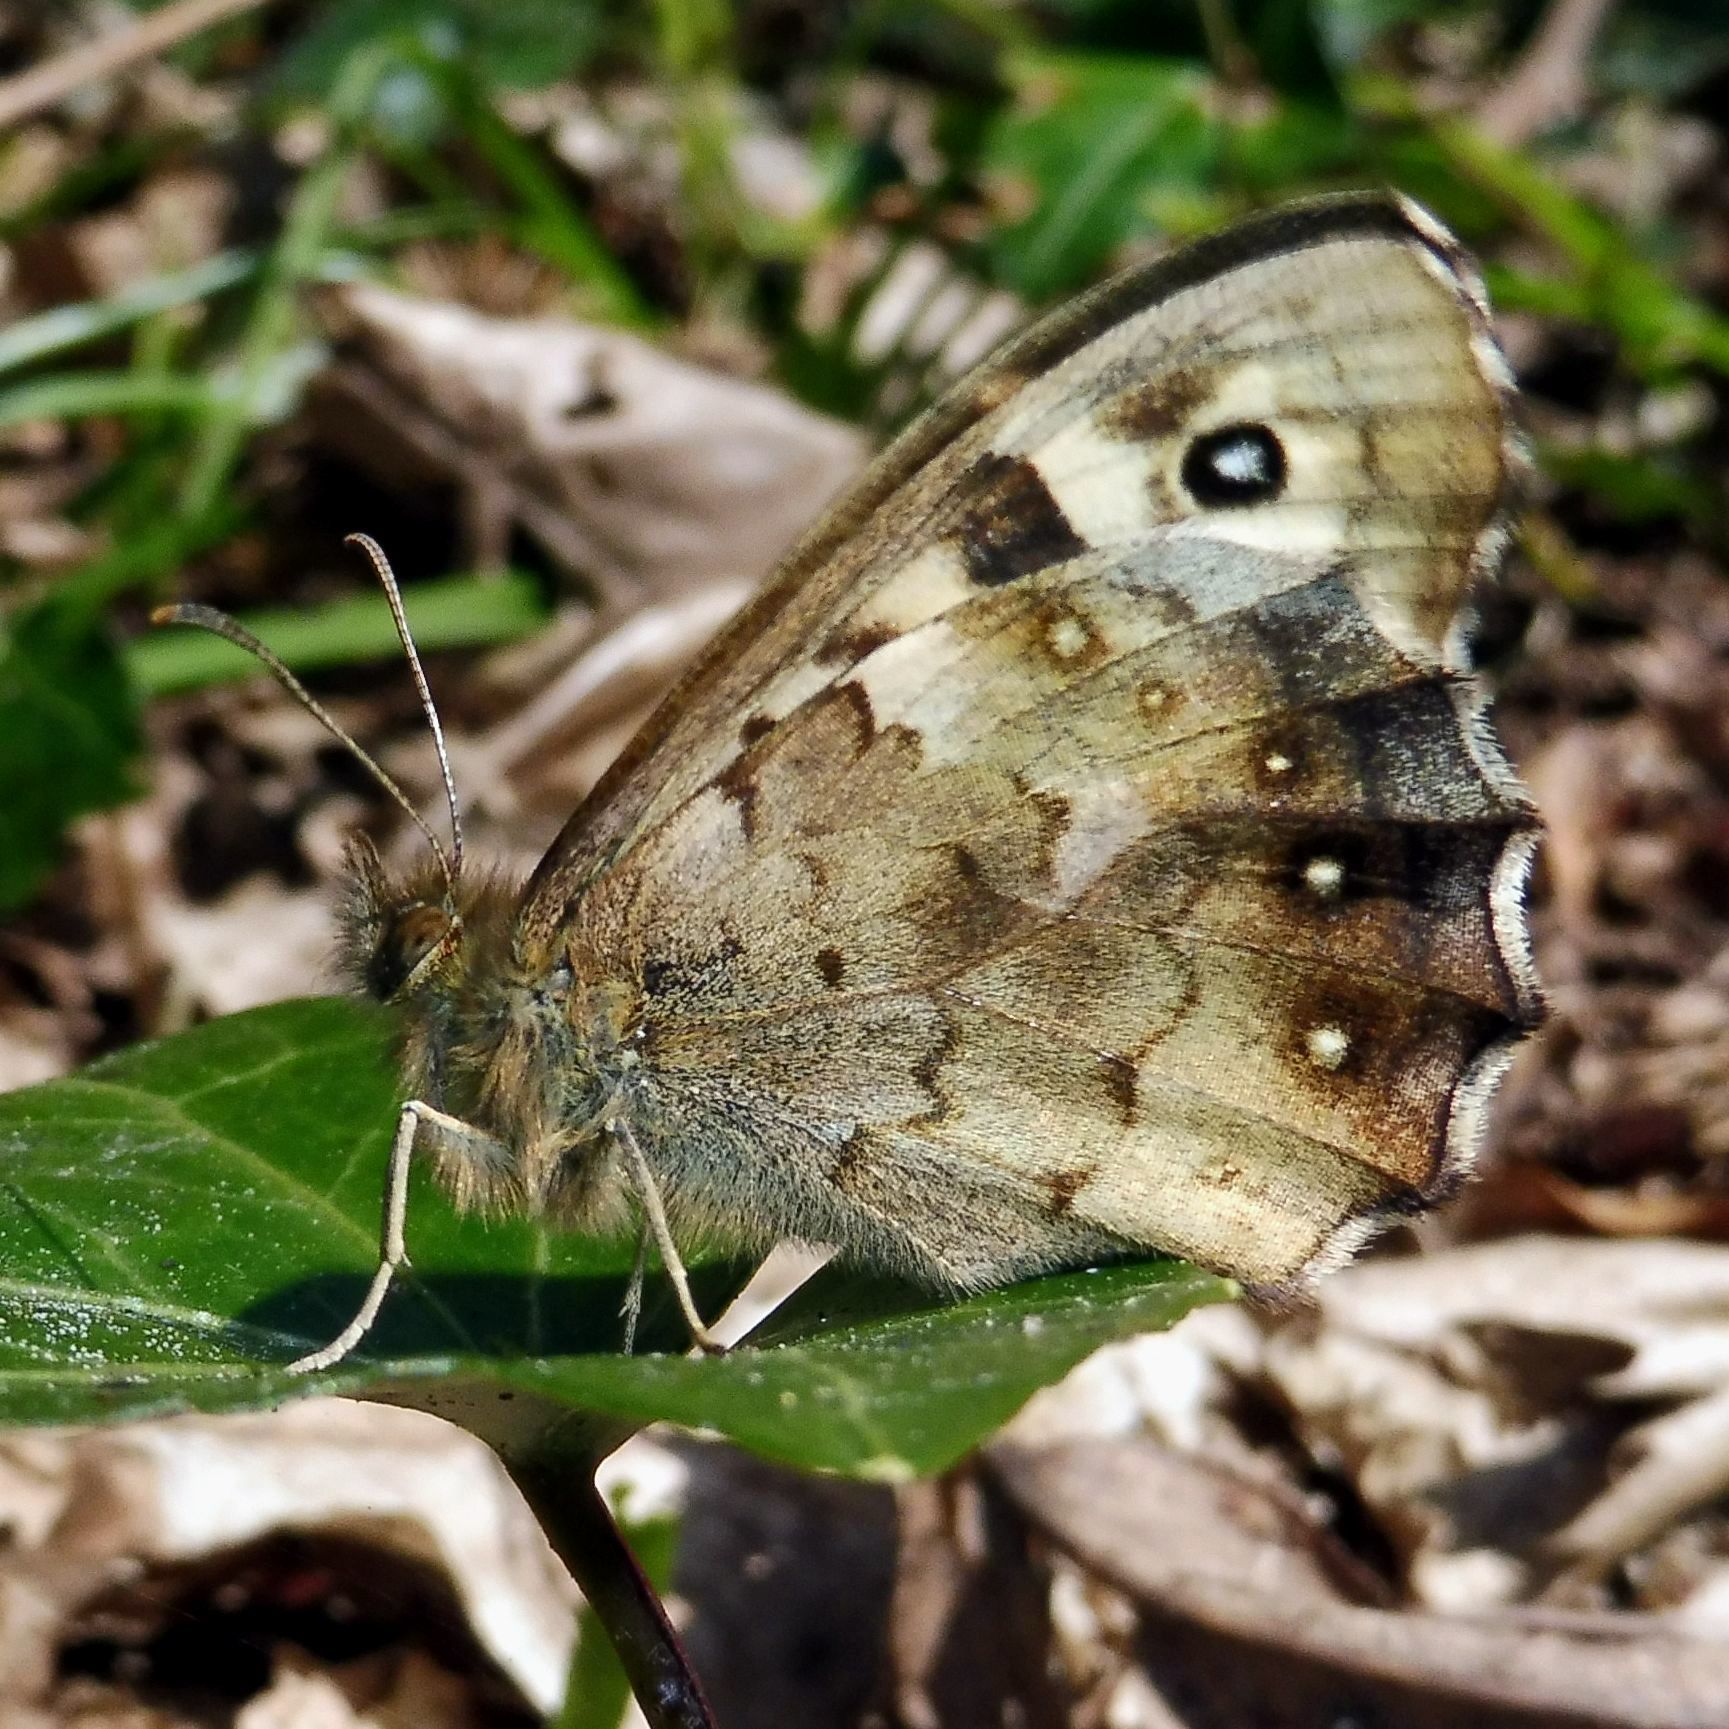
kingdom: Animalia
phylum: Arthropoda
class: Insecta
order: Lepidoptera
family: Nymphalidae
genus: Pararge
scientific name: Pararge aegeria
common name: Speckled wood
